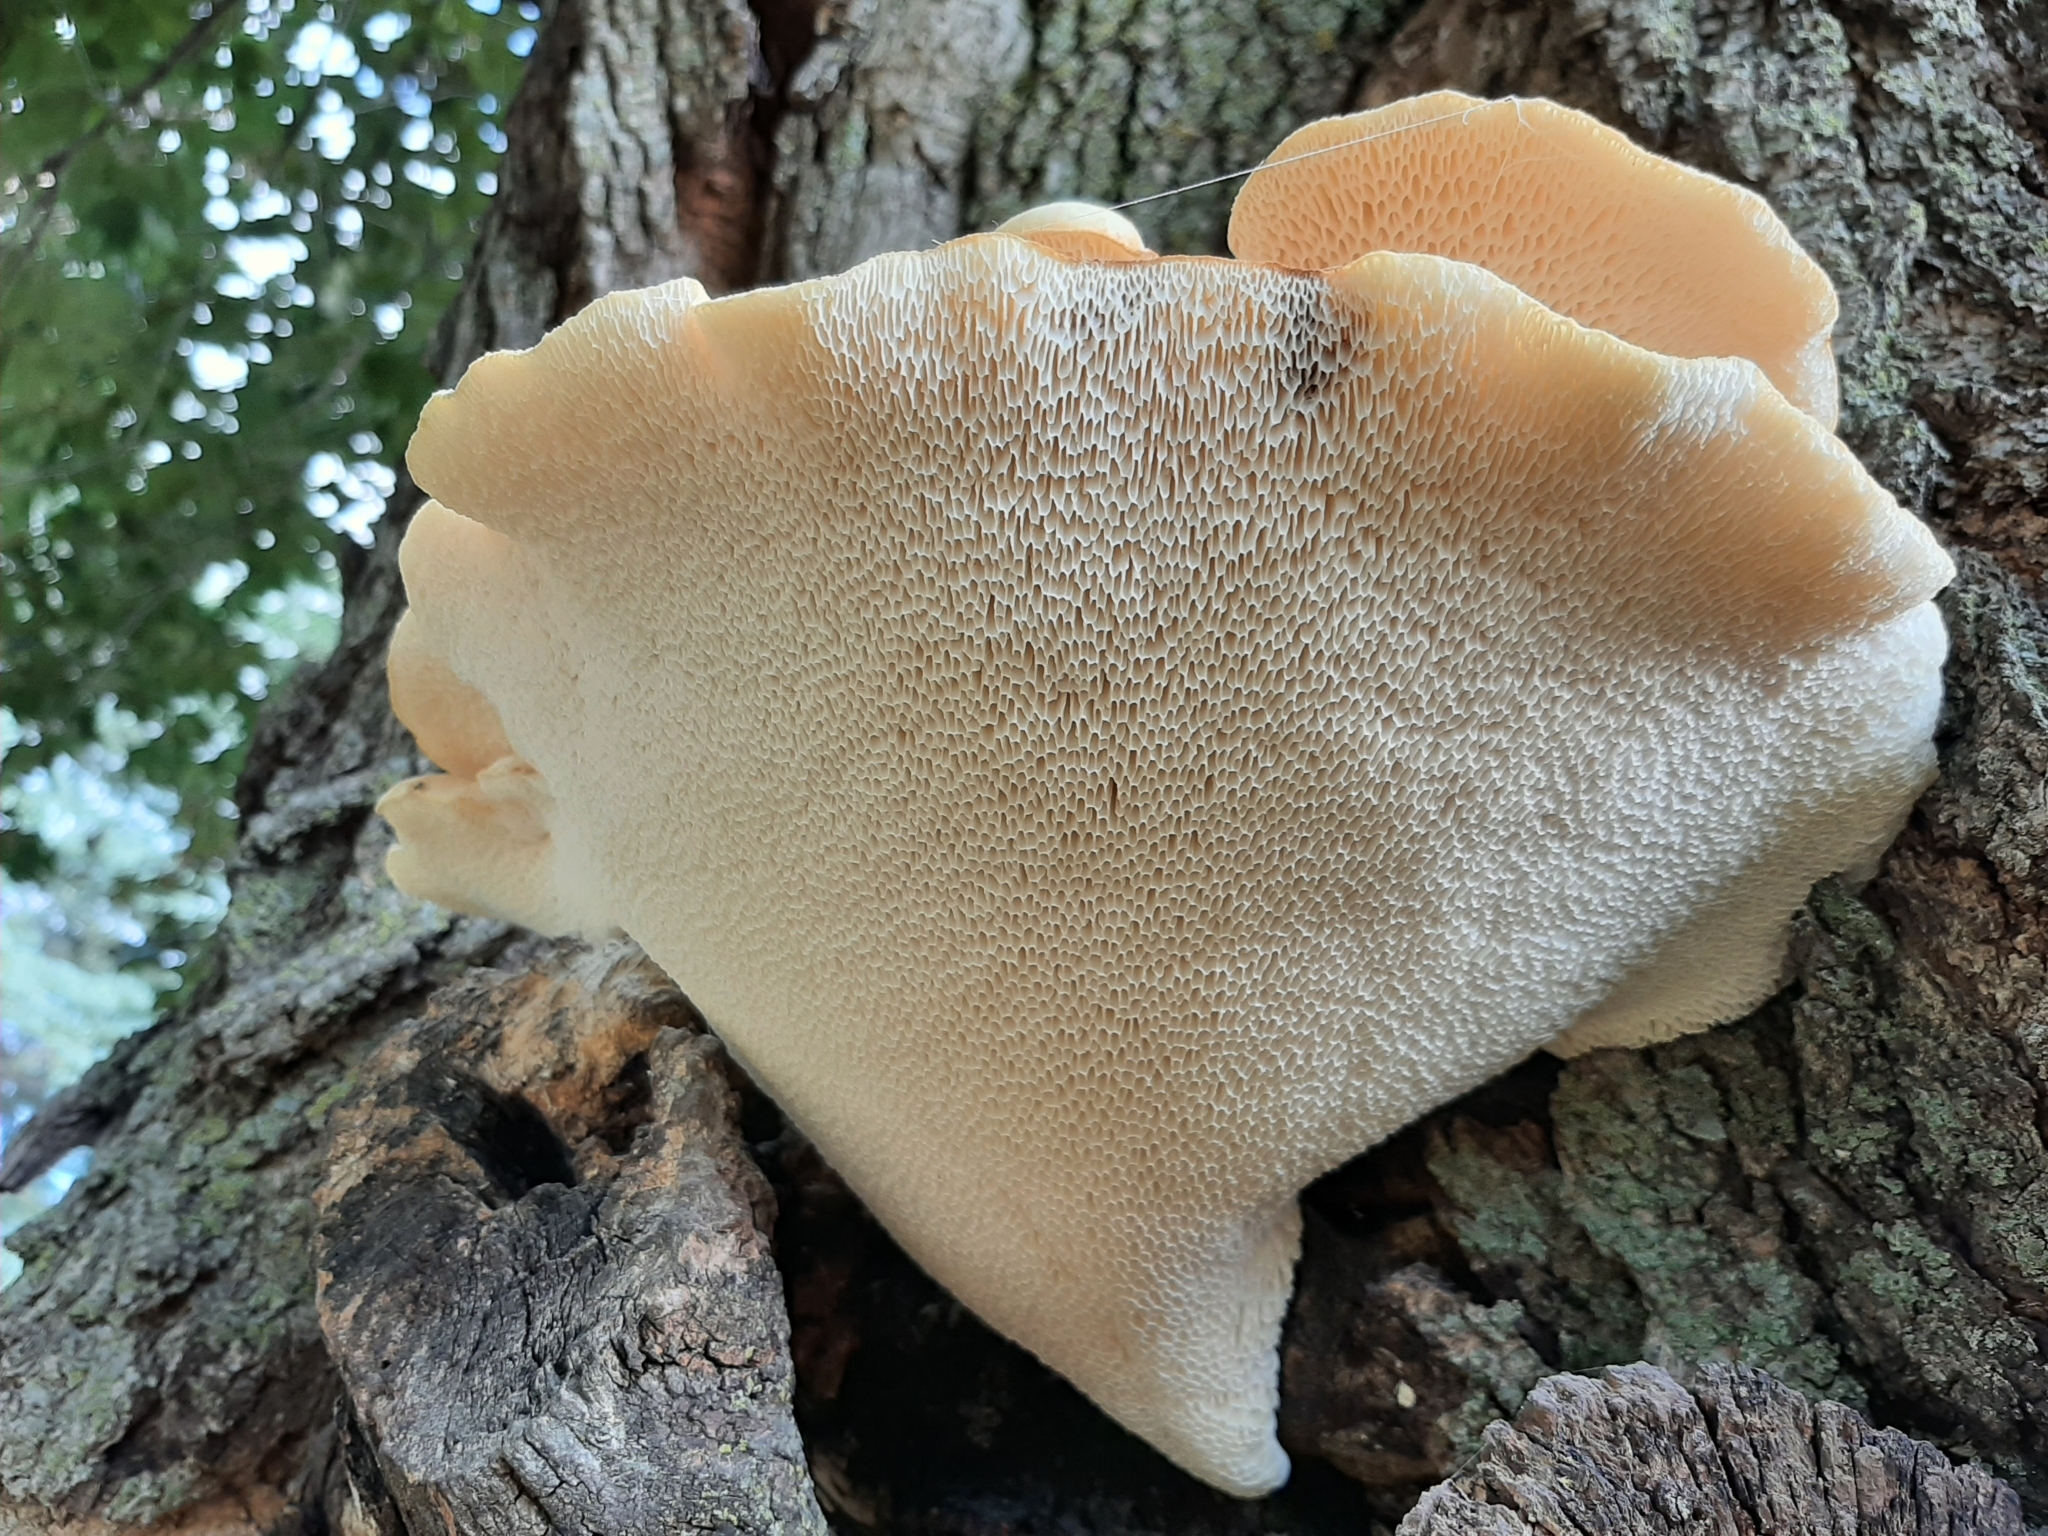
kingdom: Fungi
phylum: Basidiomycota
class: Agaricomycetes
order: Polyporales
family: Polyporaceae
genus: Cerioporus
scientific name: Cerioporus squamosus
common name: Dryad's saddle
